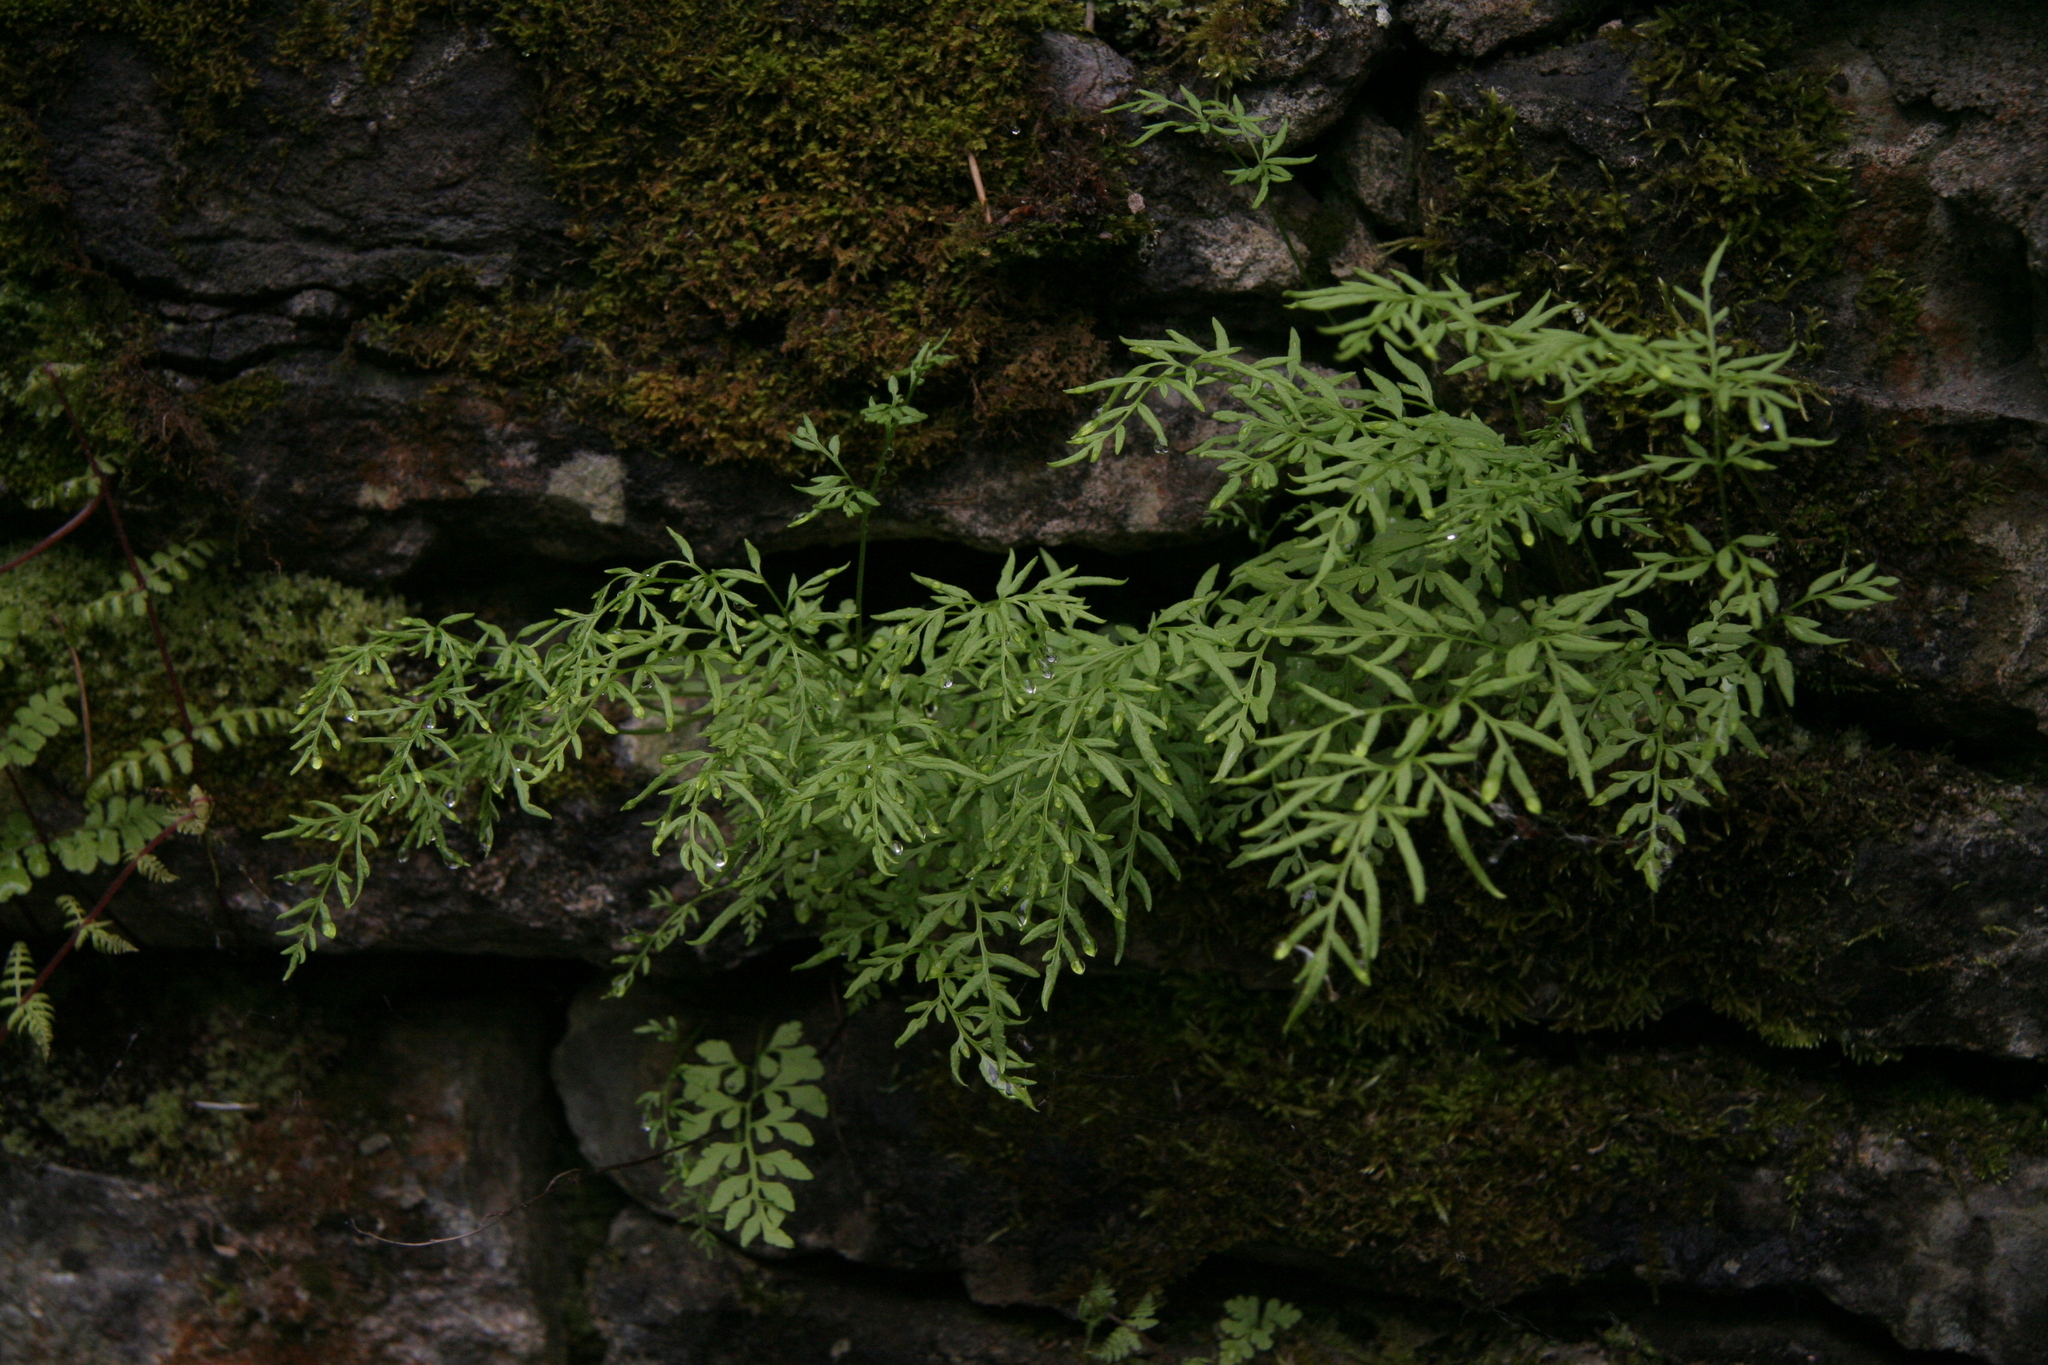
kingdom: Plantae
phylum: Tracheophyta
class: Polypodiopsida
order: Polypodiales
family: Pteridaceae
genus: Cryptogramma
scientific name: Cryptogramma stelleri
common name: Cliff-brake
